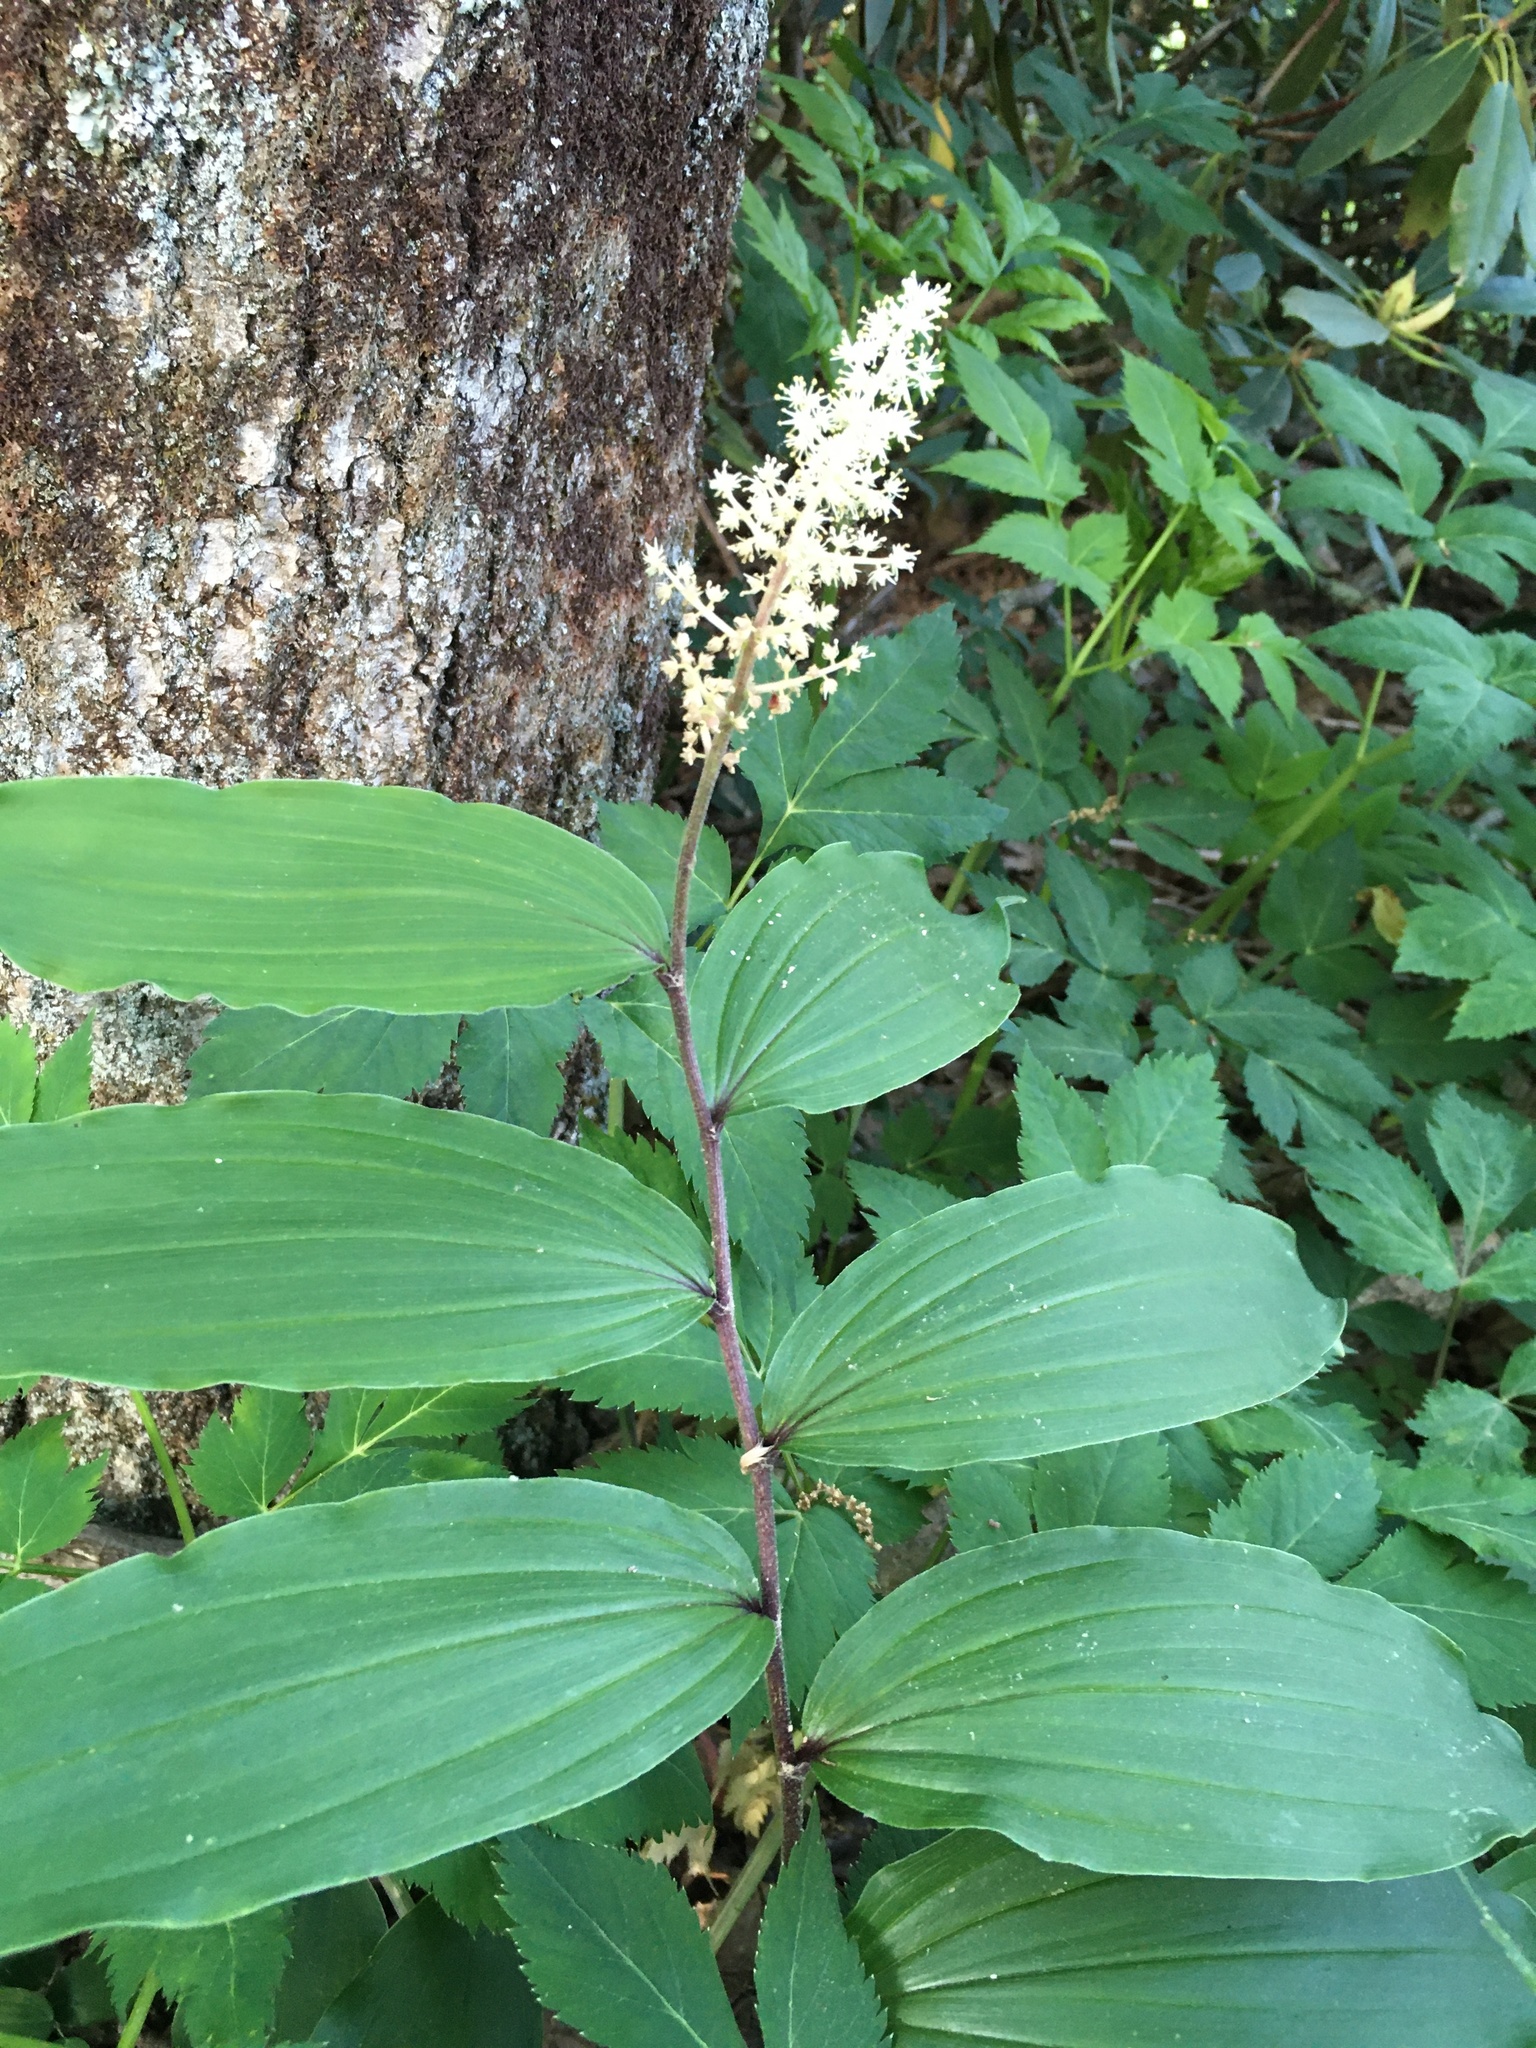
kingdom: Plantae
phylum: Tracheophyta
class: Liliopsida
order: Asparagales
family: Asparagaceae
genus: Maianthemum
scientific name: Maianthemum racemosum
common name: False spikenard
